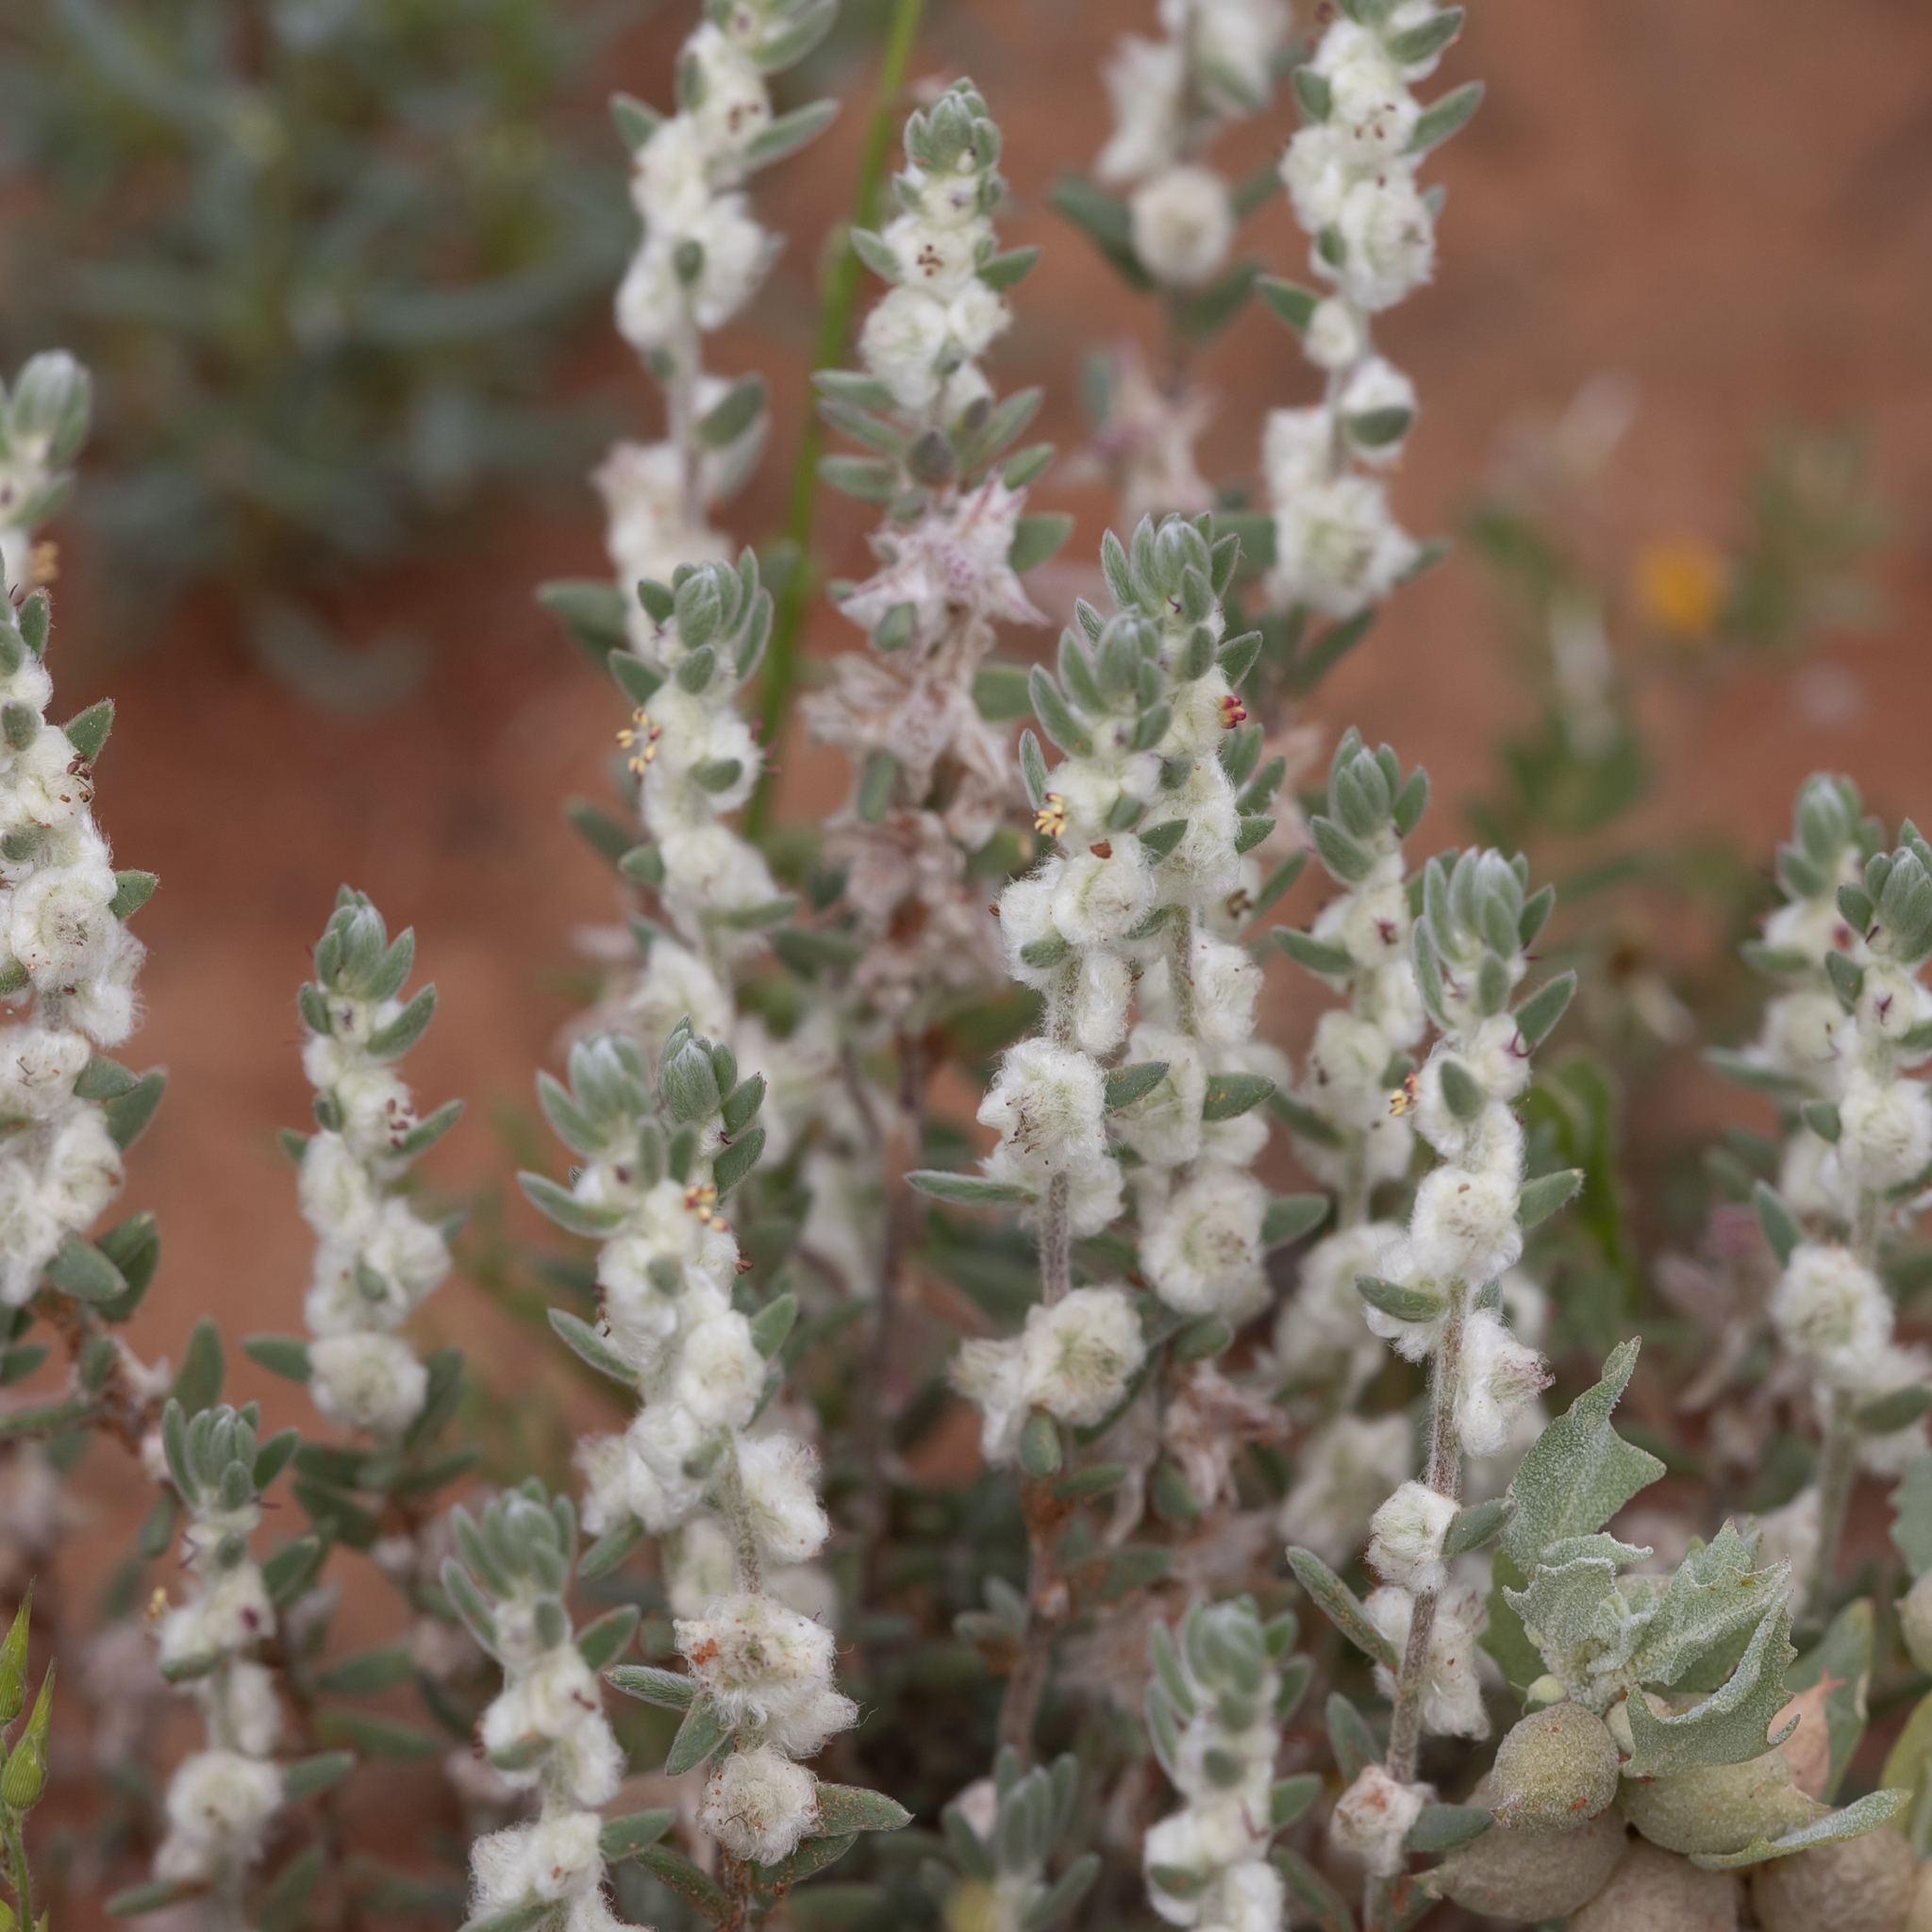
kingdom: Plantae
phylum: Tracheophyta
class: Magnoliopsida
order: Caryophyllales
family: Amaranthaceae
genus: Maireana
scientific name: Maireana sclerolaenoides
